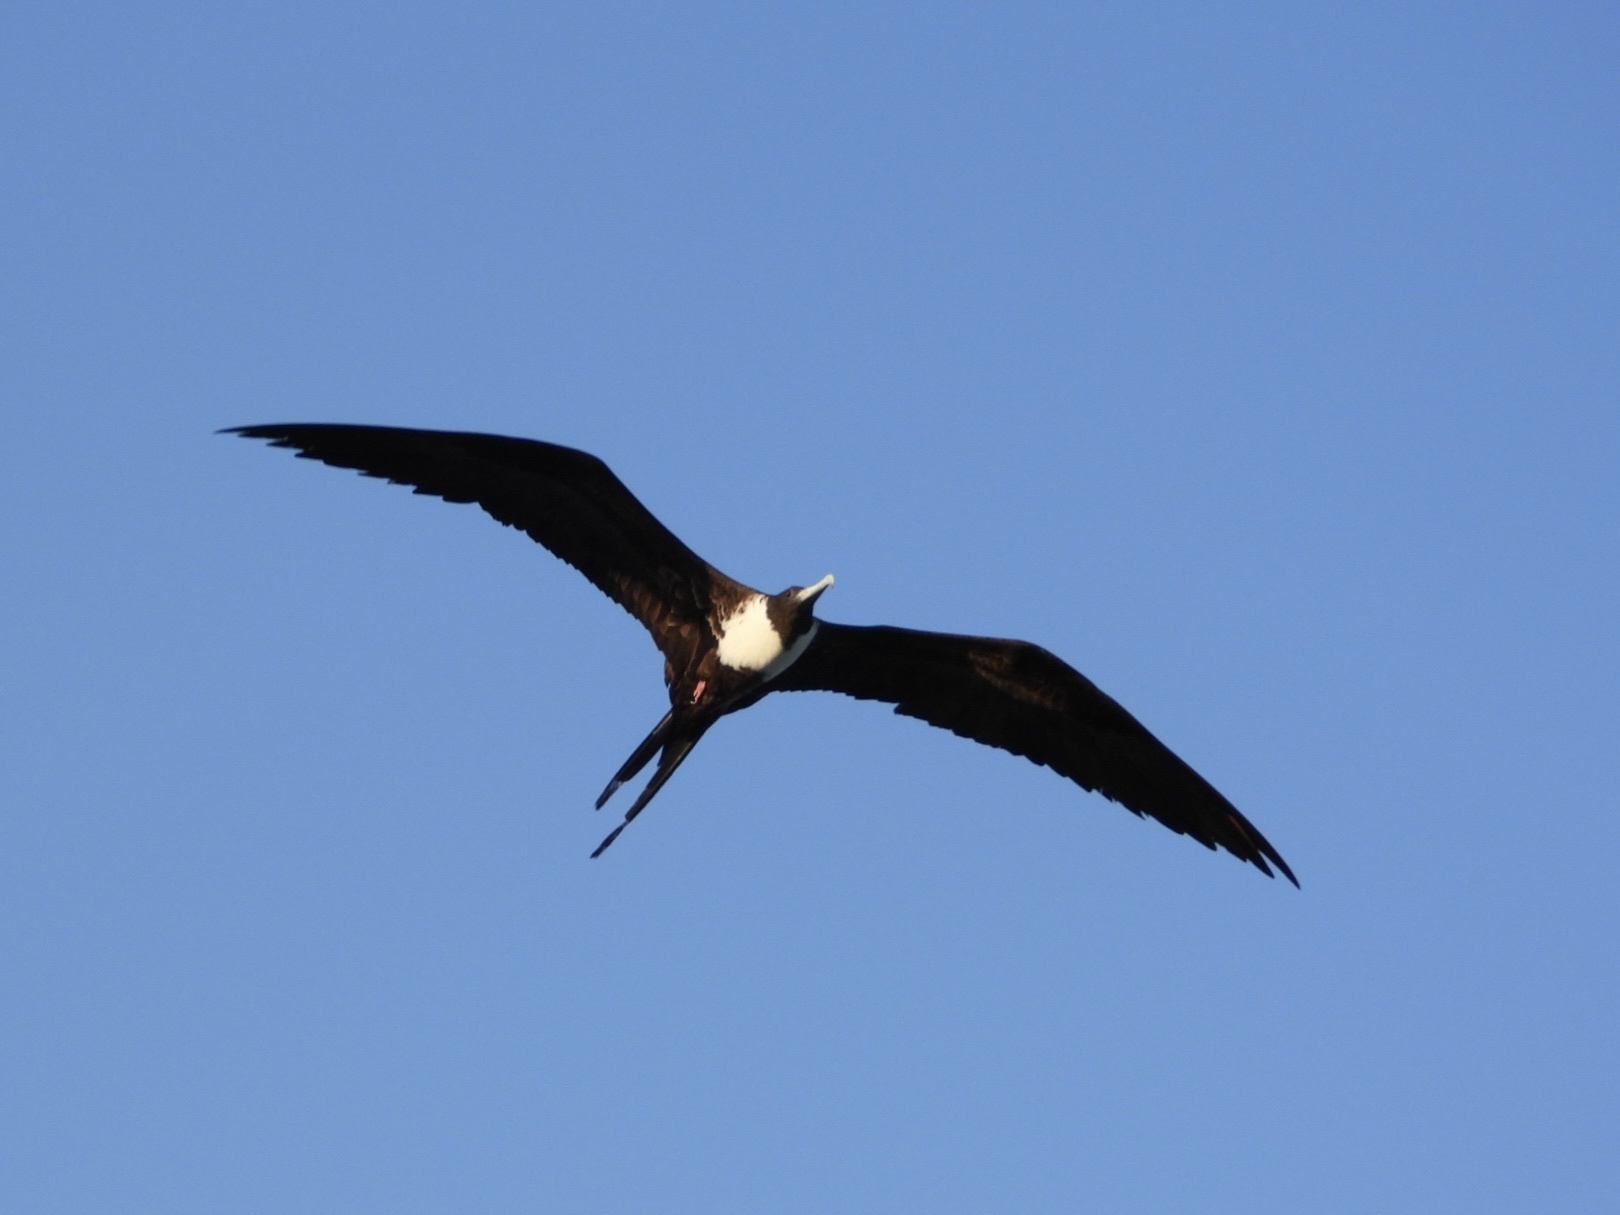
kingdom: Animalia
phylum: Chordata
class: Aves
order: Suliformes
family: Fregatidae
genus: Fregata
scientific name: Fregata magnificens
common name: Magnificent frigatebird
